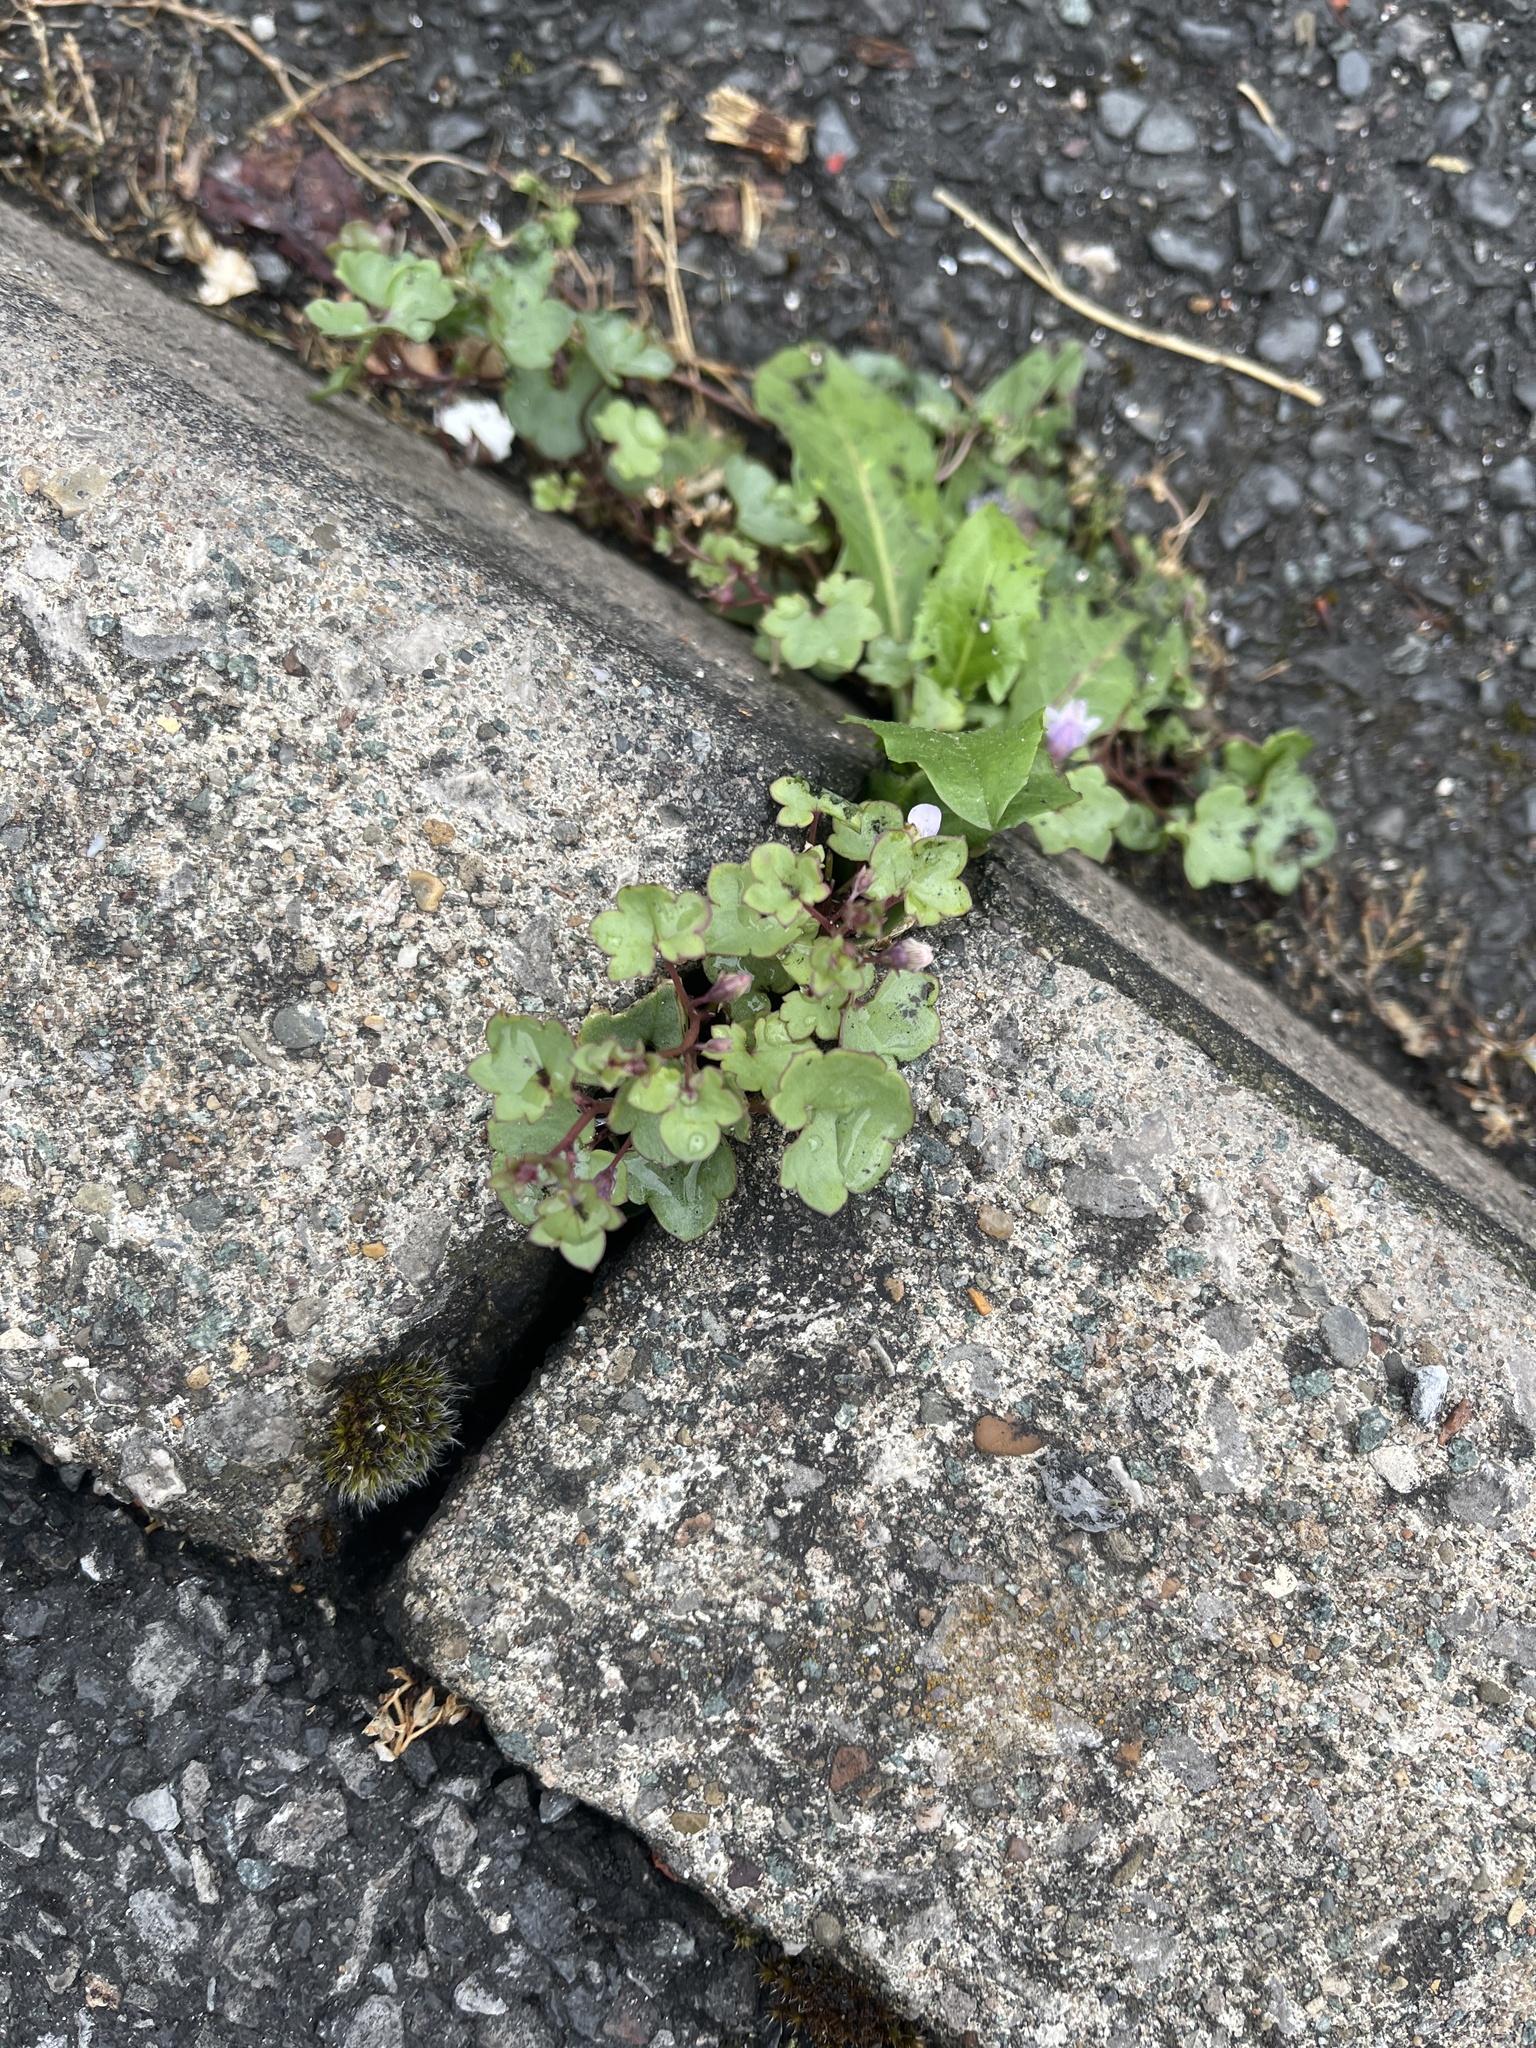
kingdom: Plantae
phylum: Tracheophyta
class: Magnoliopsida
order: Lamiales
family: Plantaginaceae
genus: Cymbalaria
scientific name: Cymbalaria muralis
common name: Ivy-leaved toadflax
